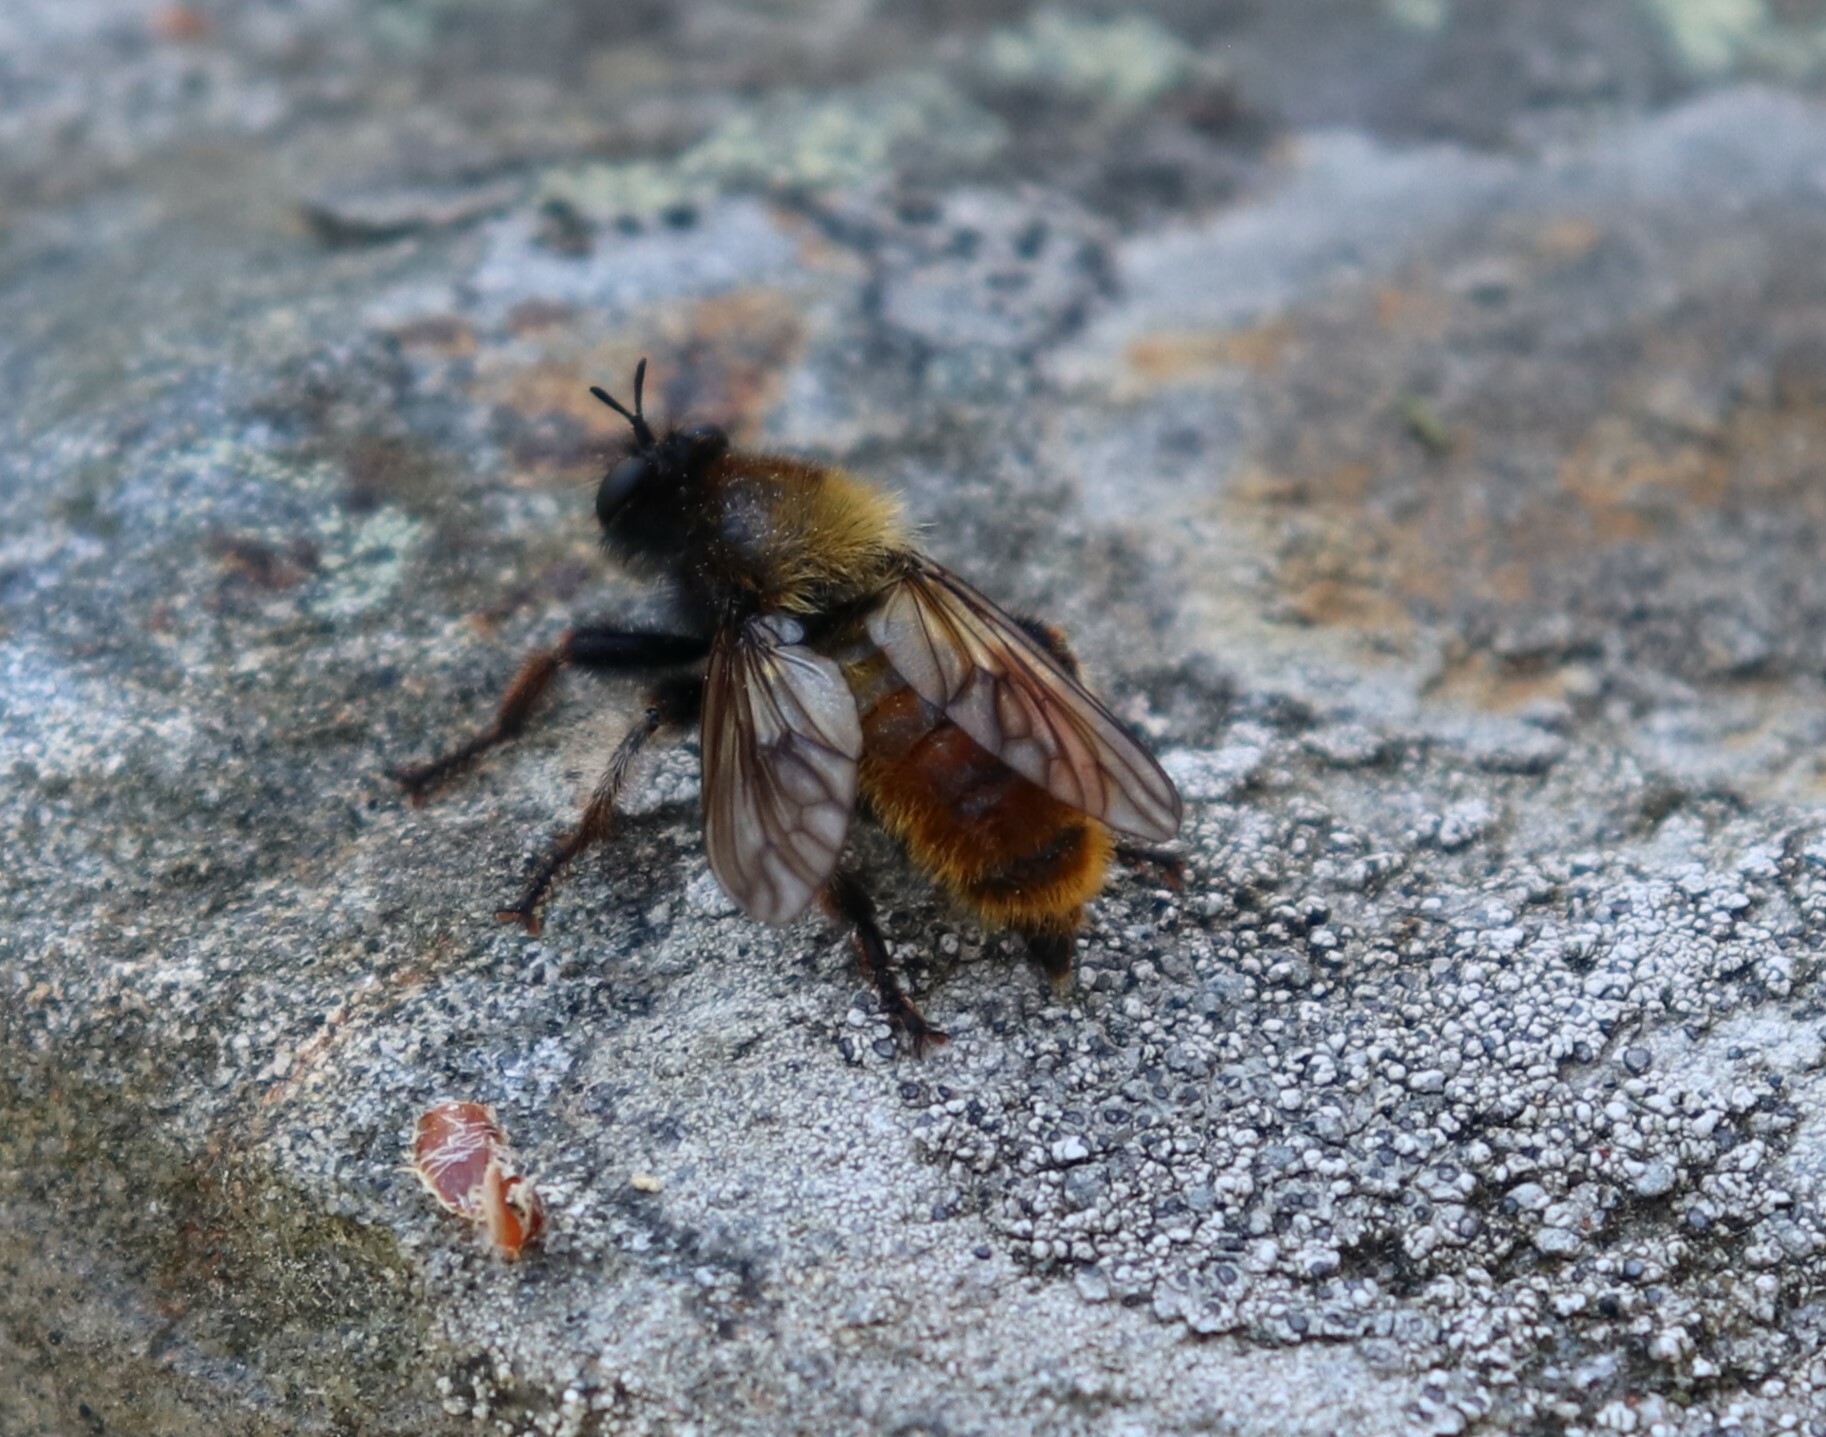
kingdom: Animalia
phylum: Arthropoda
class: Insecta
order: Diptera
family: Asilidae
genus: Laphria
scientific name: Laphria flava
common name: Bumblebee robberfly
